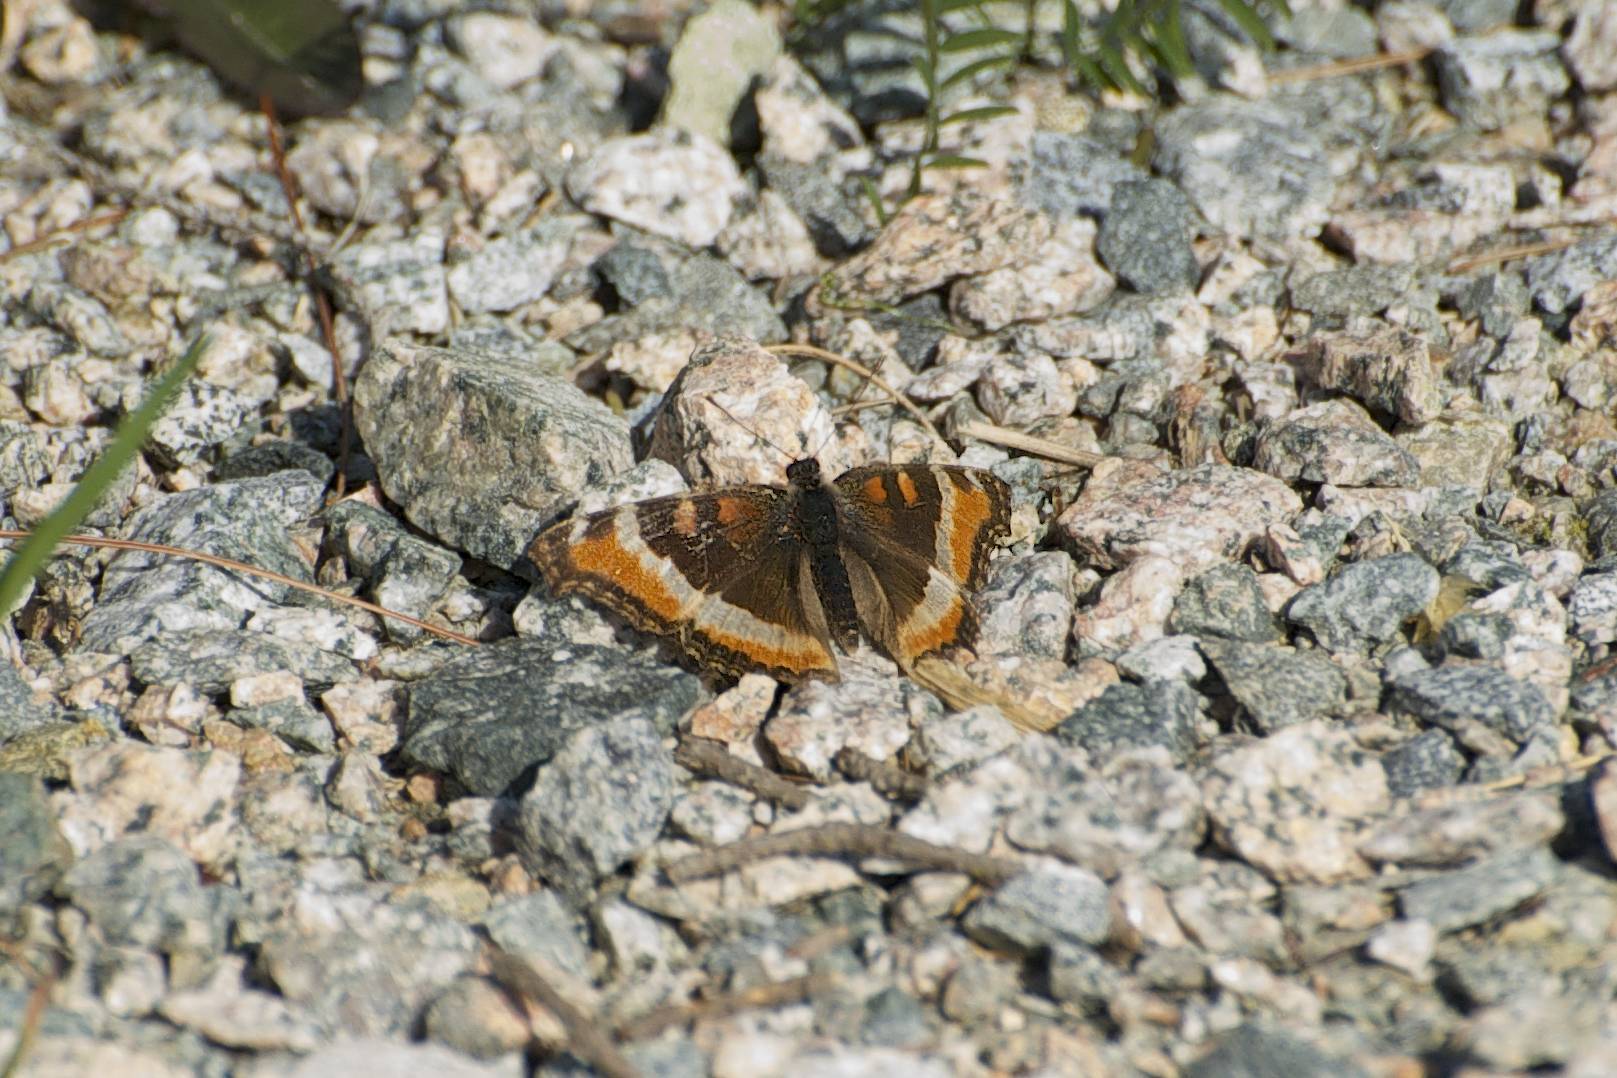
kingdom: Animalia
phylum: Arthropoda
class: Insecta
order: Lepidoptera
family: Nymphalidae
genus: Aglais
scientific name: Aglais milberti
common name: Milbert's tortoiseshell
